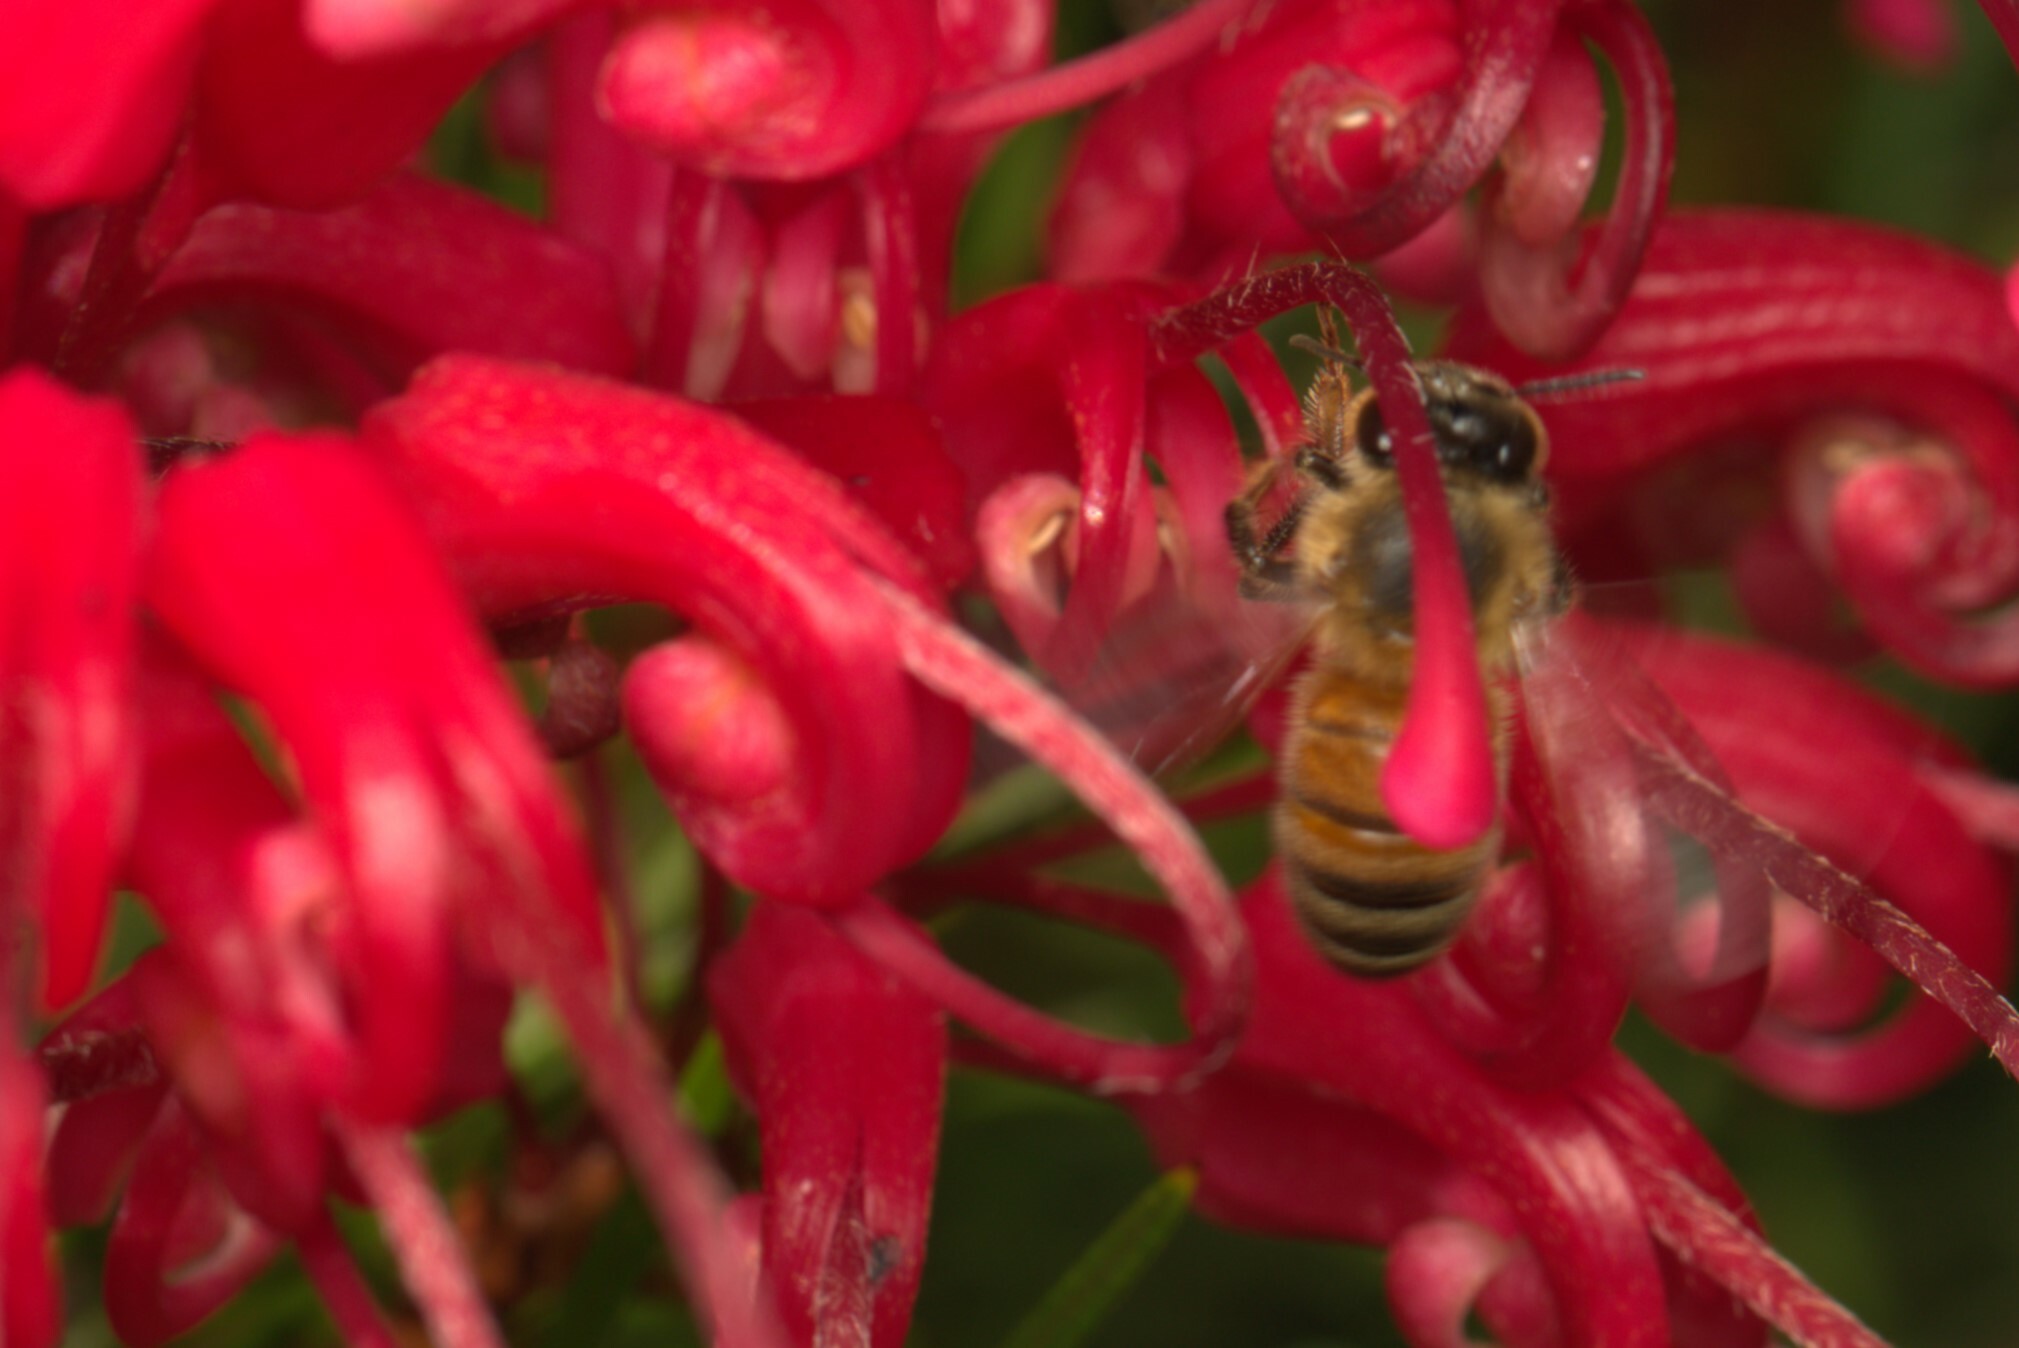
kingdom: Animalia
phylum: Arthropoda
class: Insecta
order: Hymenoptera
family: Apidae
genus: Apis
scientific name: Apis mellifera
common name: Honey bee
